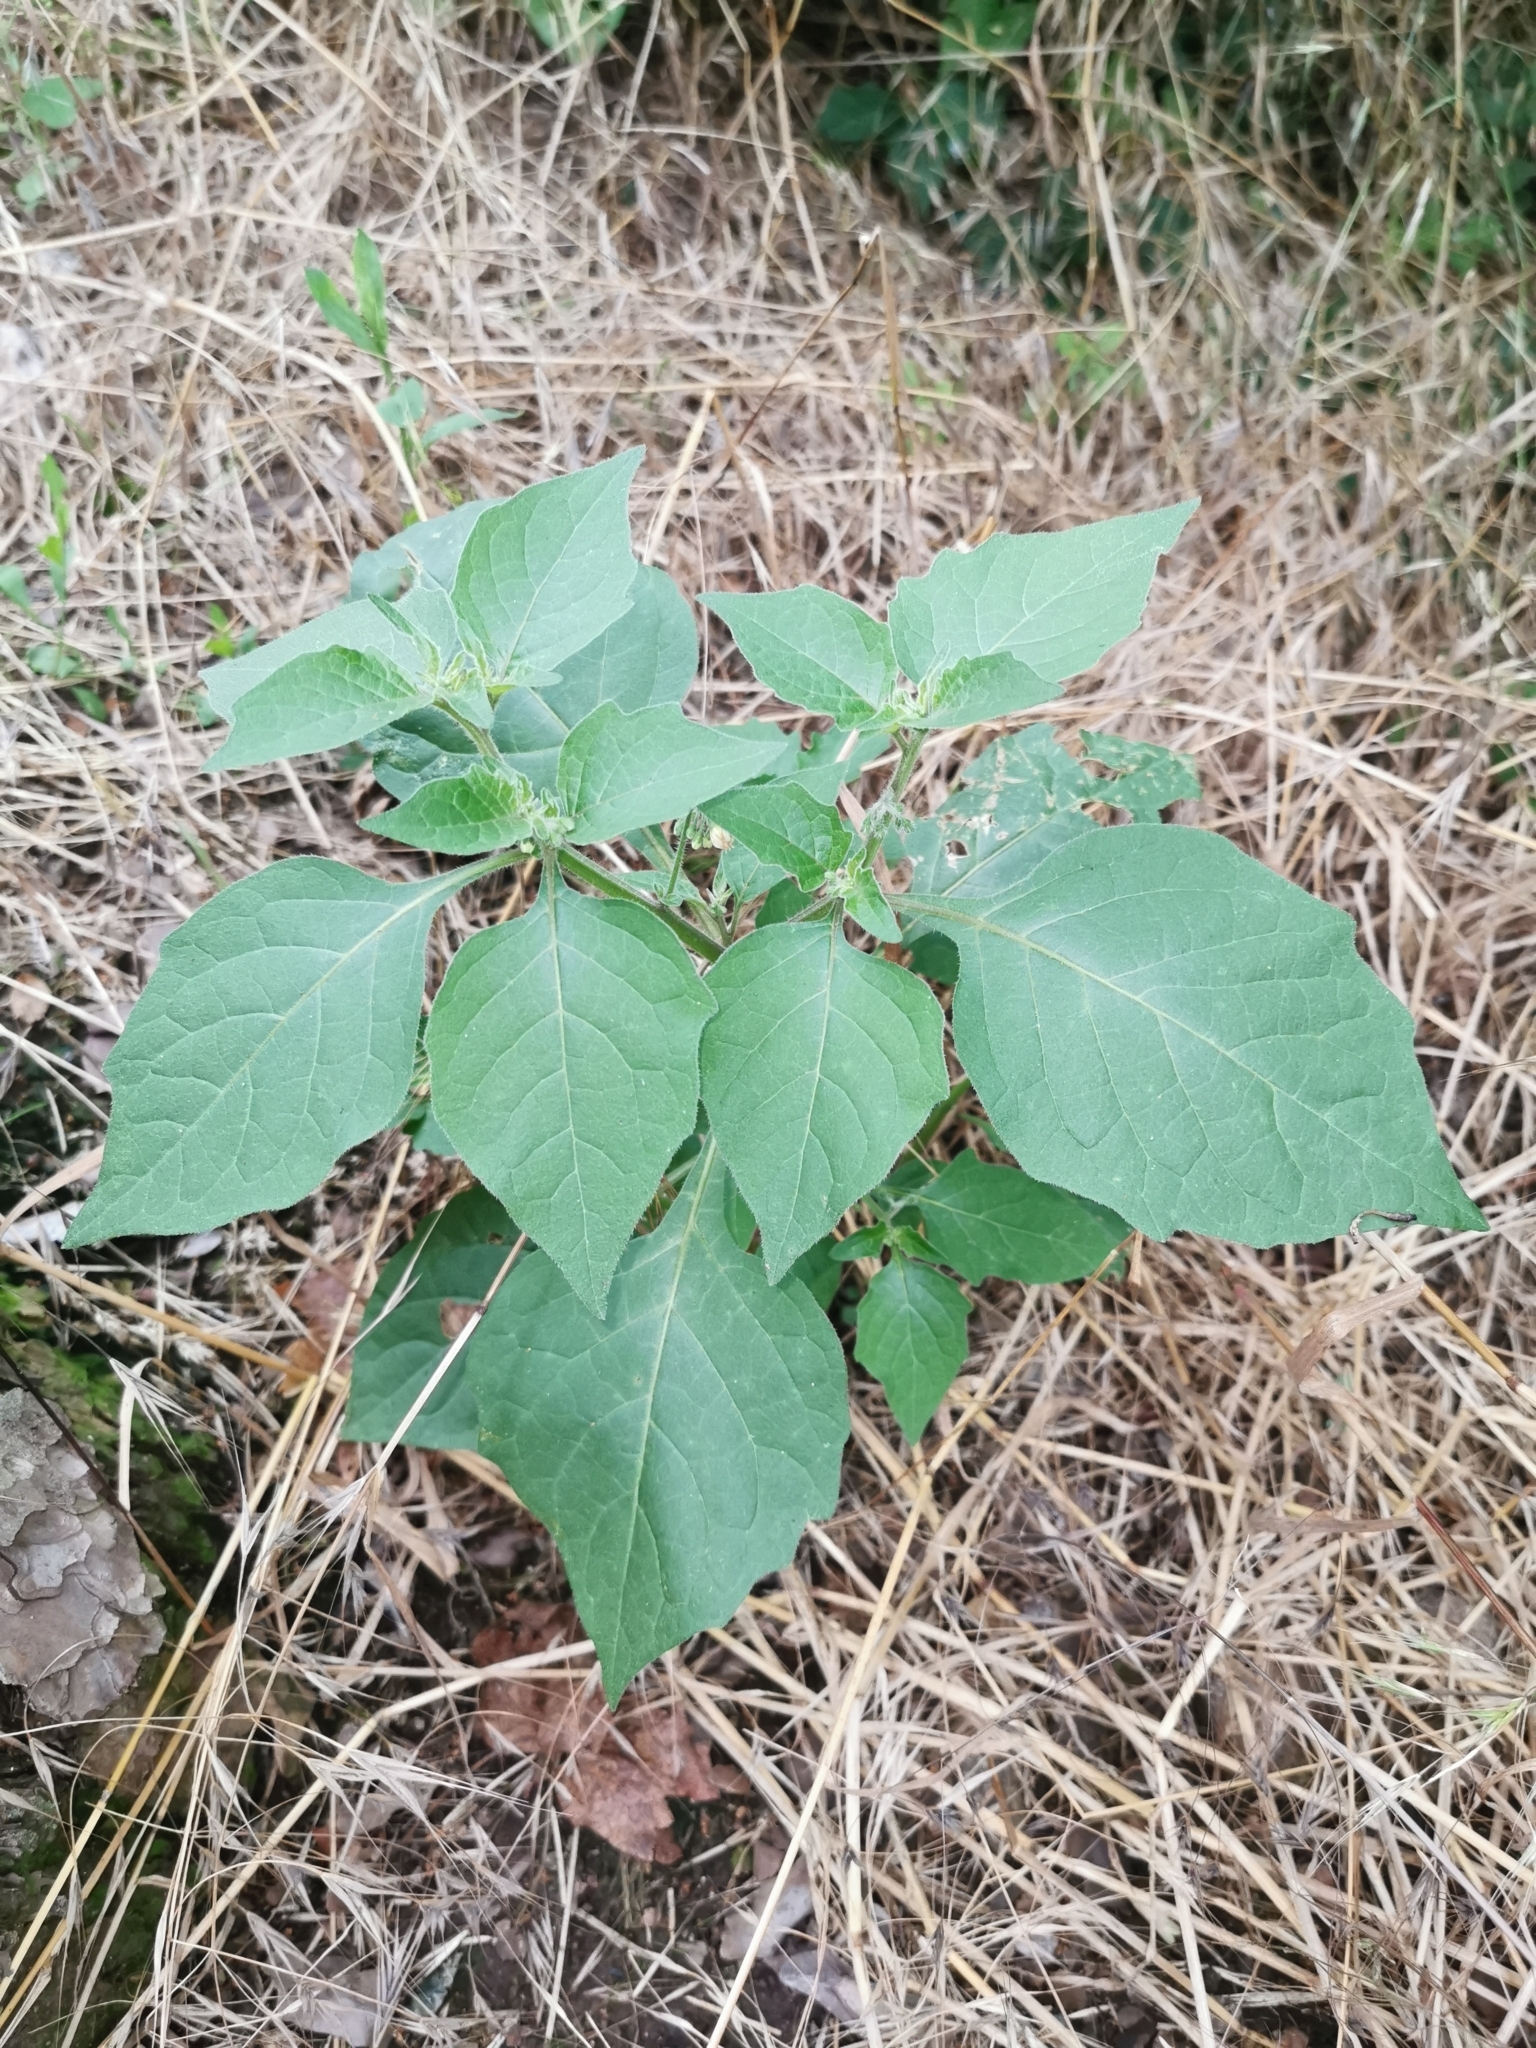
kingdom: Plantae
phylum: Tracheophyta
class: Magnoliopsida
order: Solanales
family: Solanaceae
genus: Solanum
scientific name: Solanum nigrum
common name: Black nightshade
